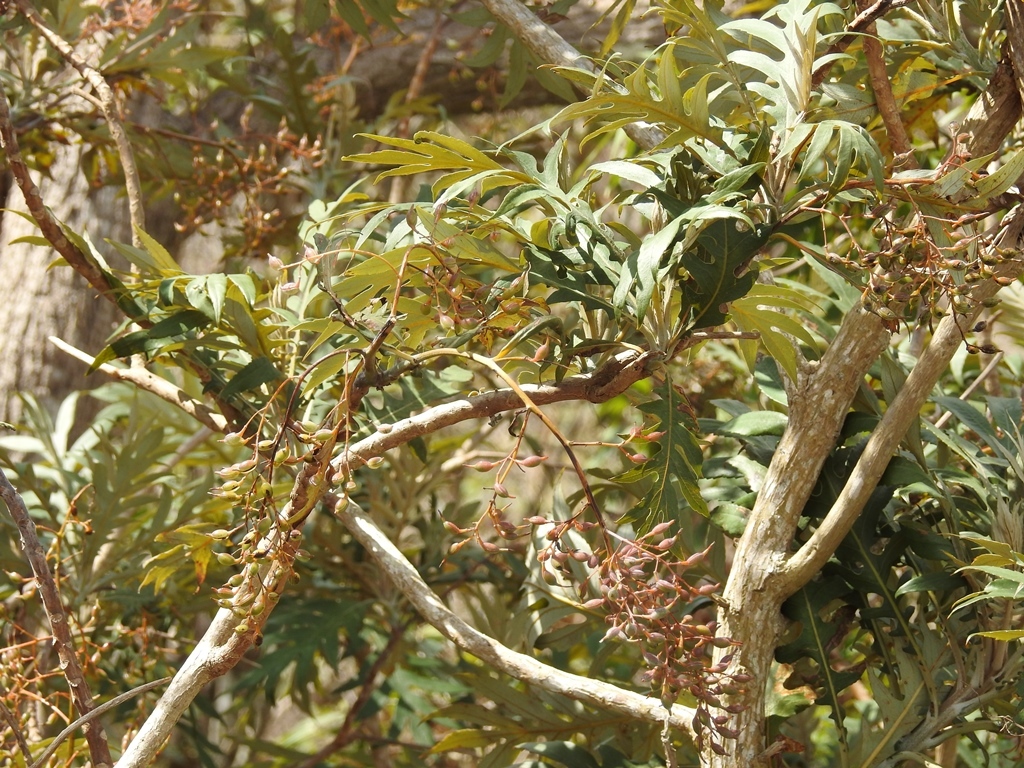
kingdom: Plantae
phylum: Tracheophyta
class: Magnoliopsida
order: Ranunculales
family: Papaveraceae
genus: Bocconia
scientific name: Bocconia arborea
